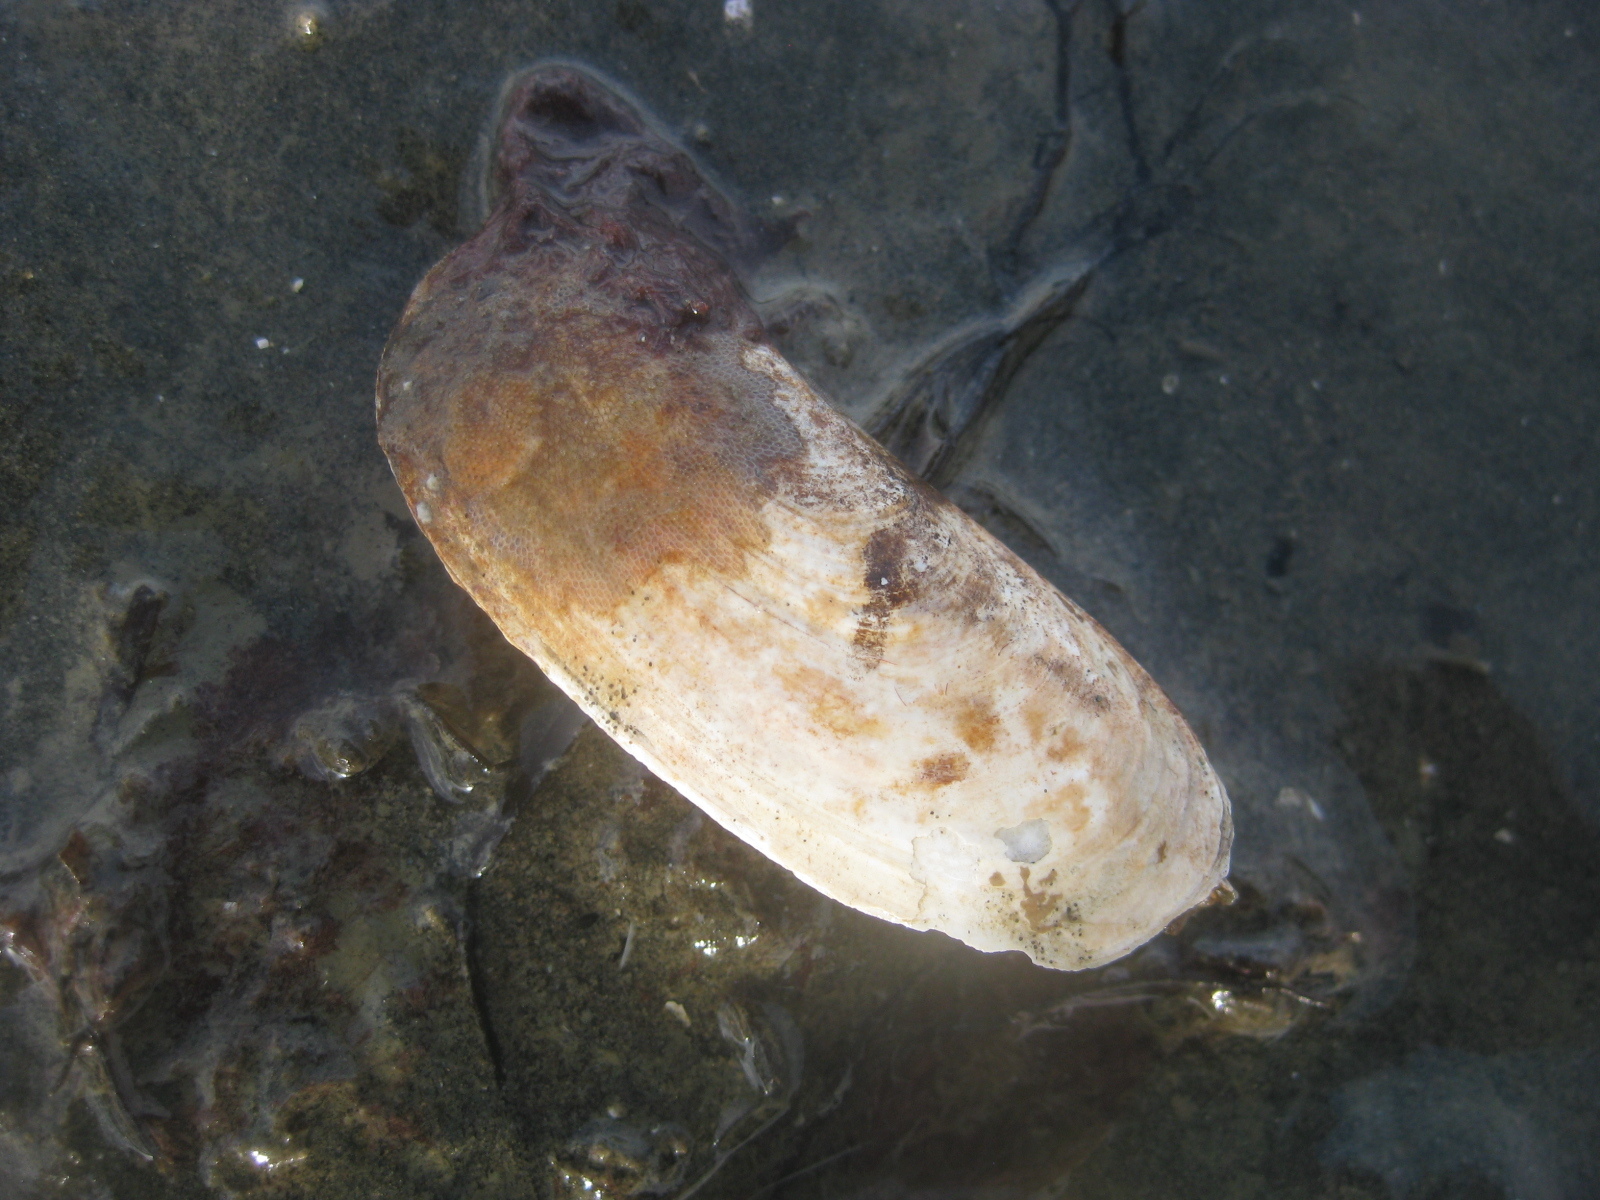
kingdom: Animalia
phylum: Mollusca
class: Bivalvia
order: Venerida
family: Mactridae
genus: Zenatia
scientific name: Zenatia acinaces
